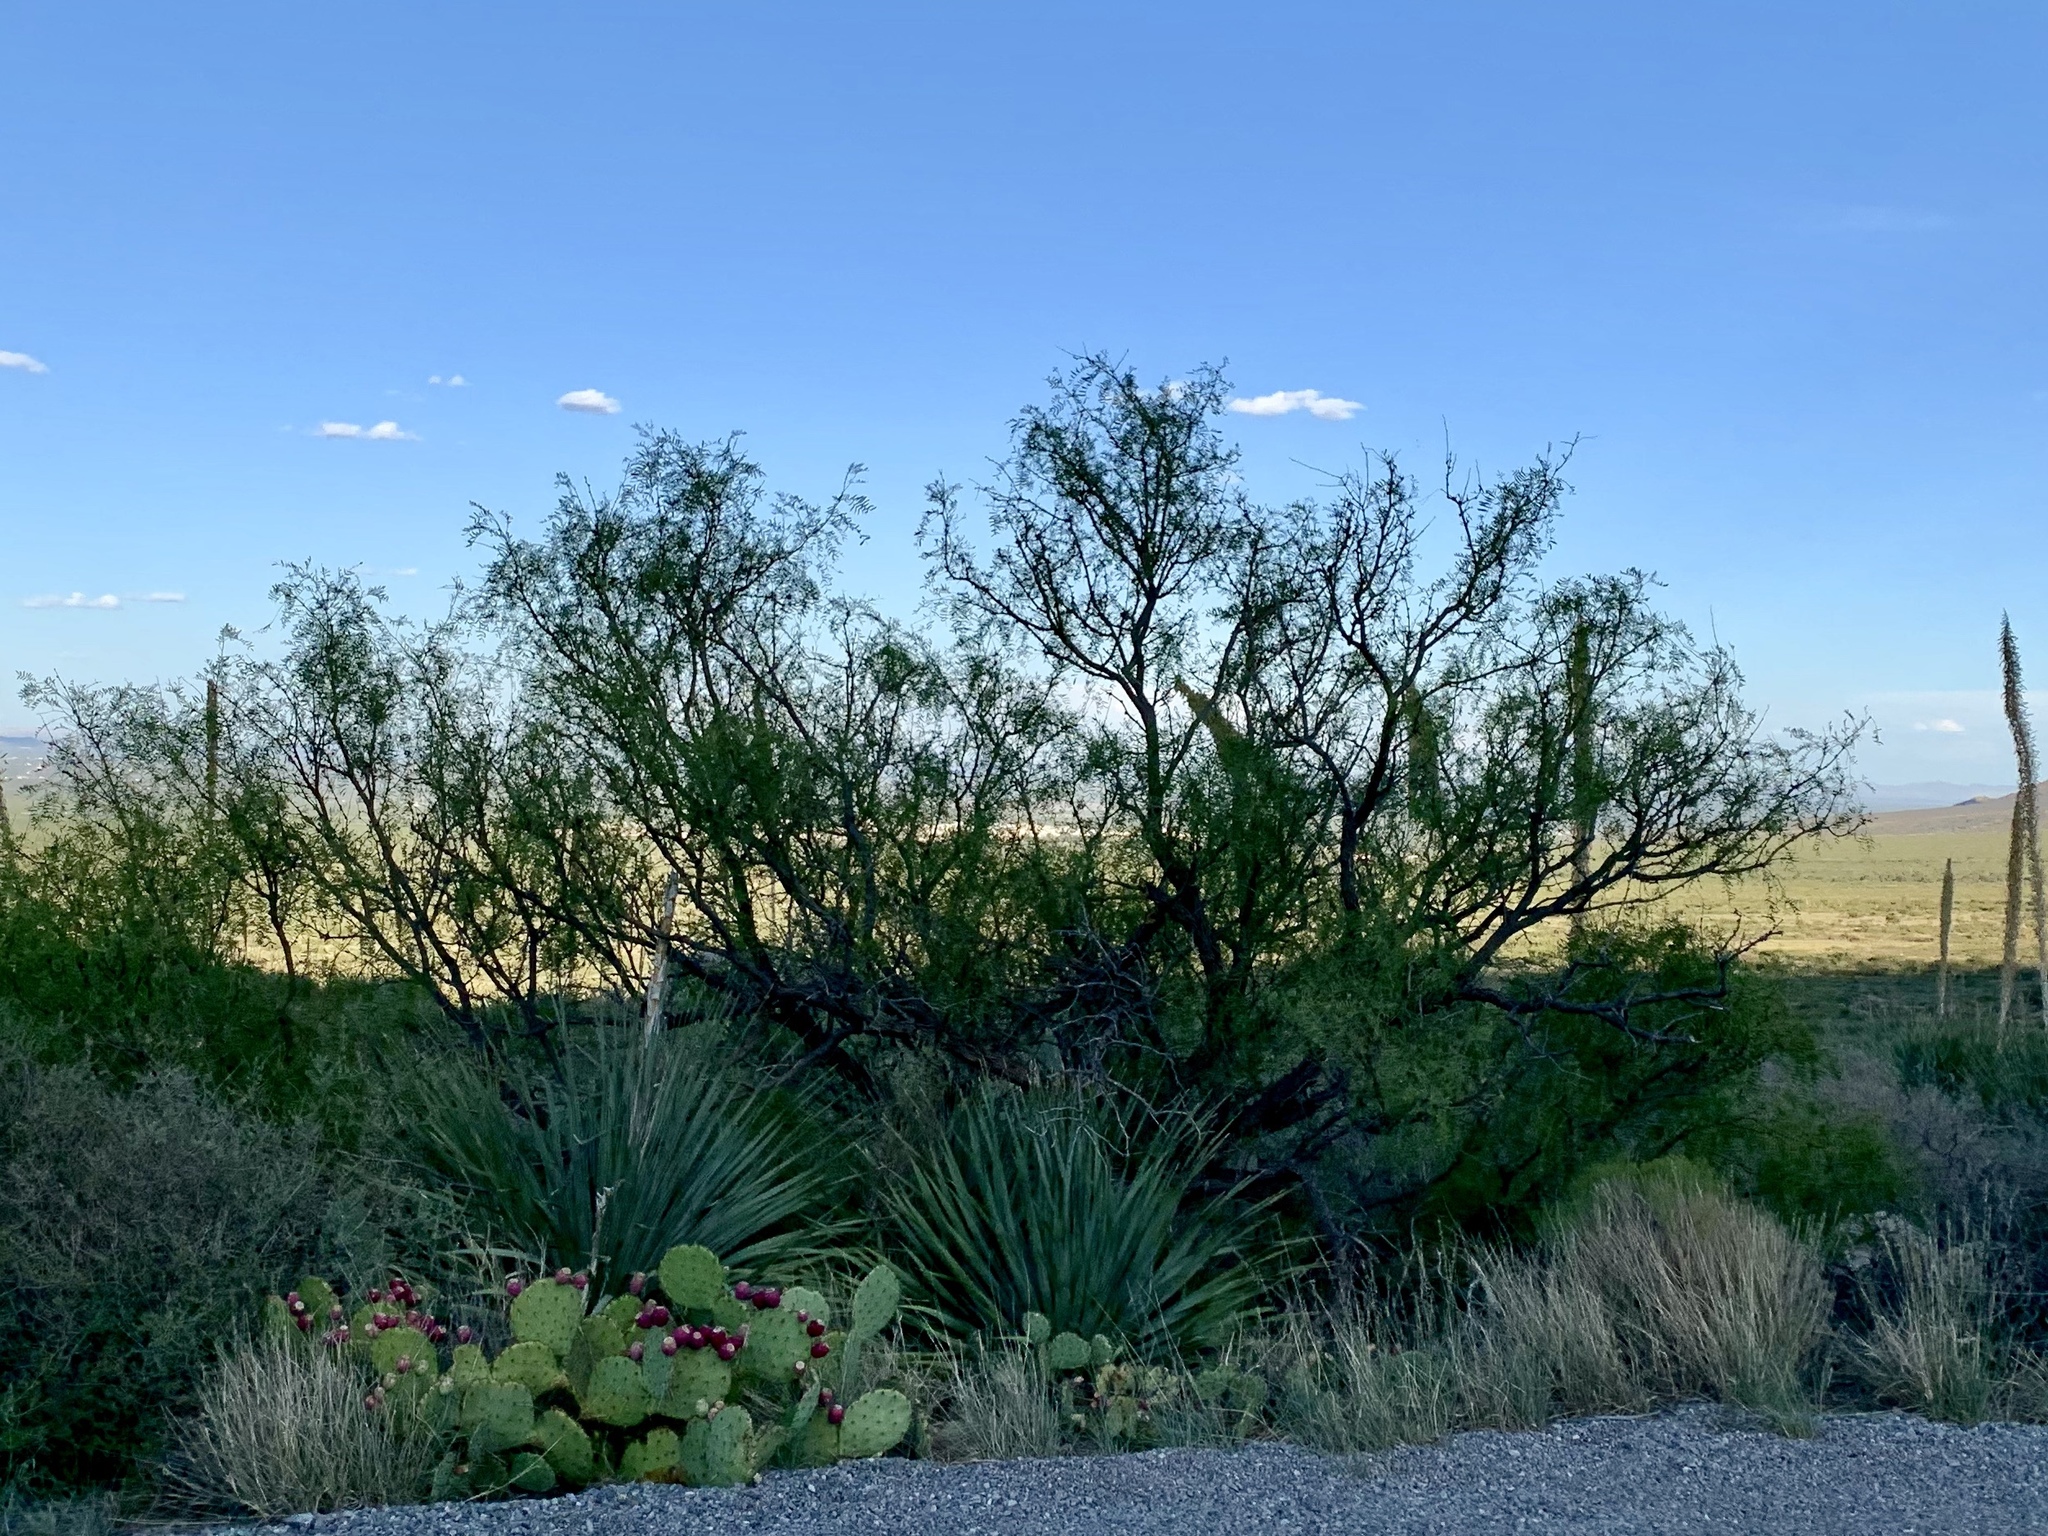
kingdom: Plantae
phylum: Tracheophyta
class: Magnoliopsida
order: Fabales
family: Fabaceae
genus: Prosopis
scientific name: Prosopis glandulosa
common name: Honey mesquite
